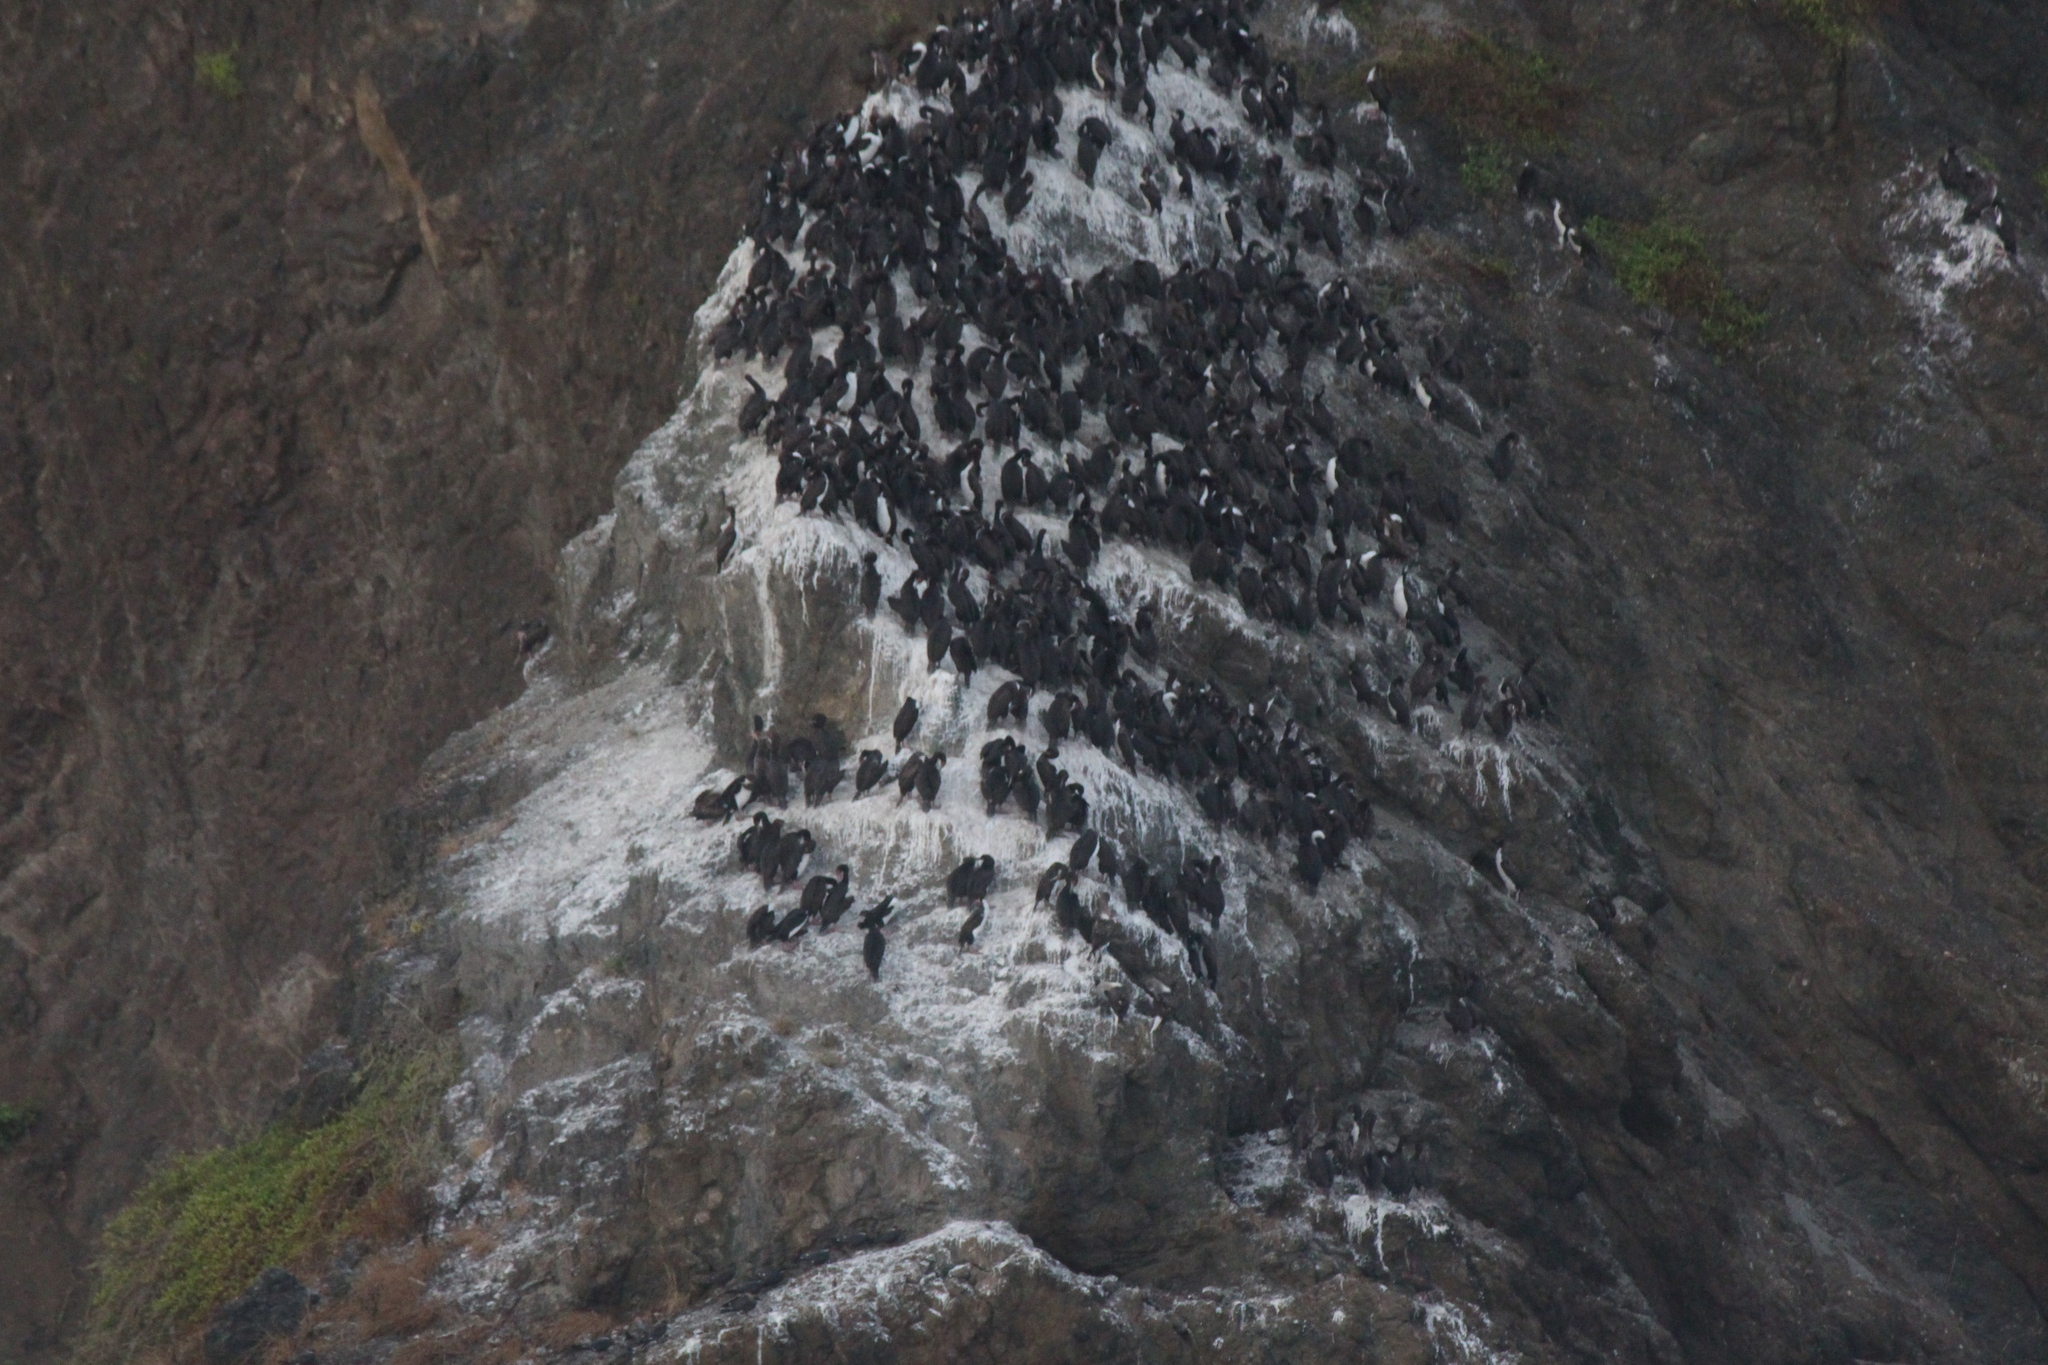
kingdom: Animalia
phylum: Chordata
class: Aves
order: Suliformes
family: Phalacrocoracidae
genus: Leucocarbo
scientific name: Leucocarbo bougainvillii
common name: Guanay cormorant
